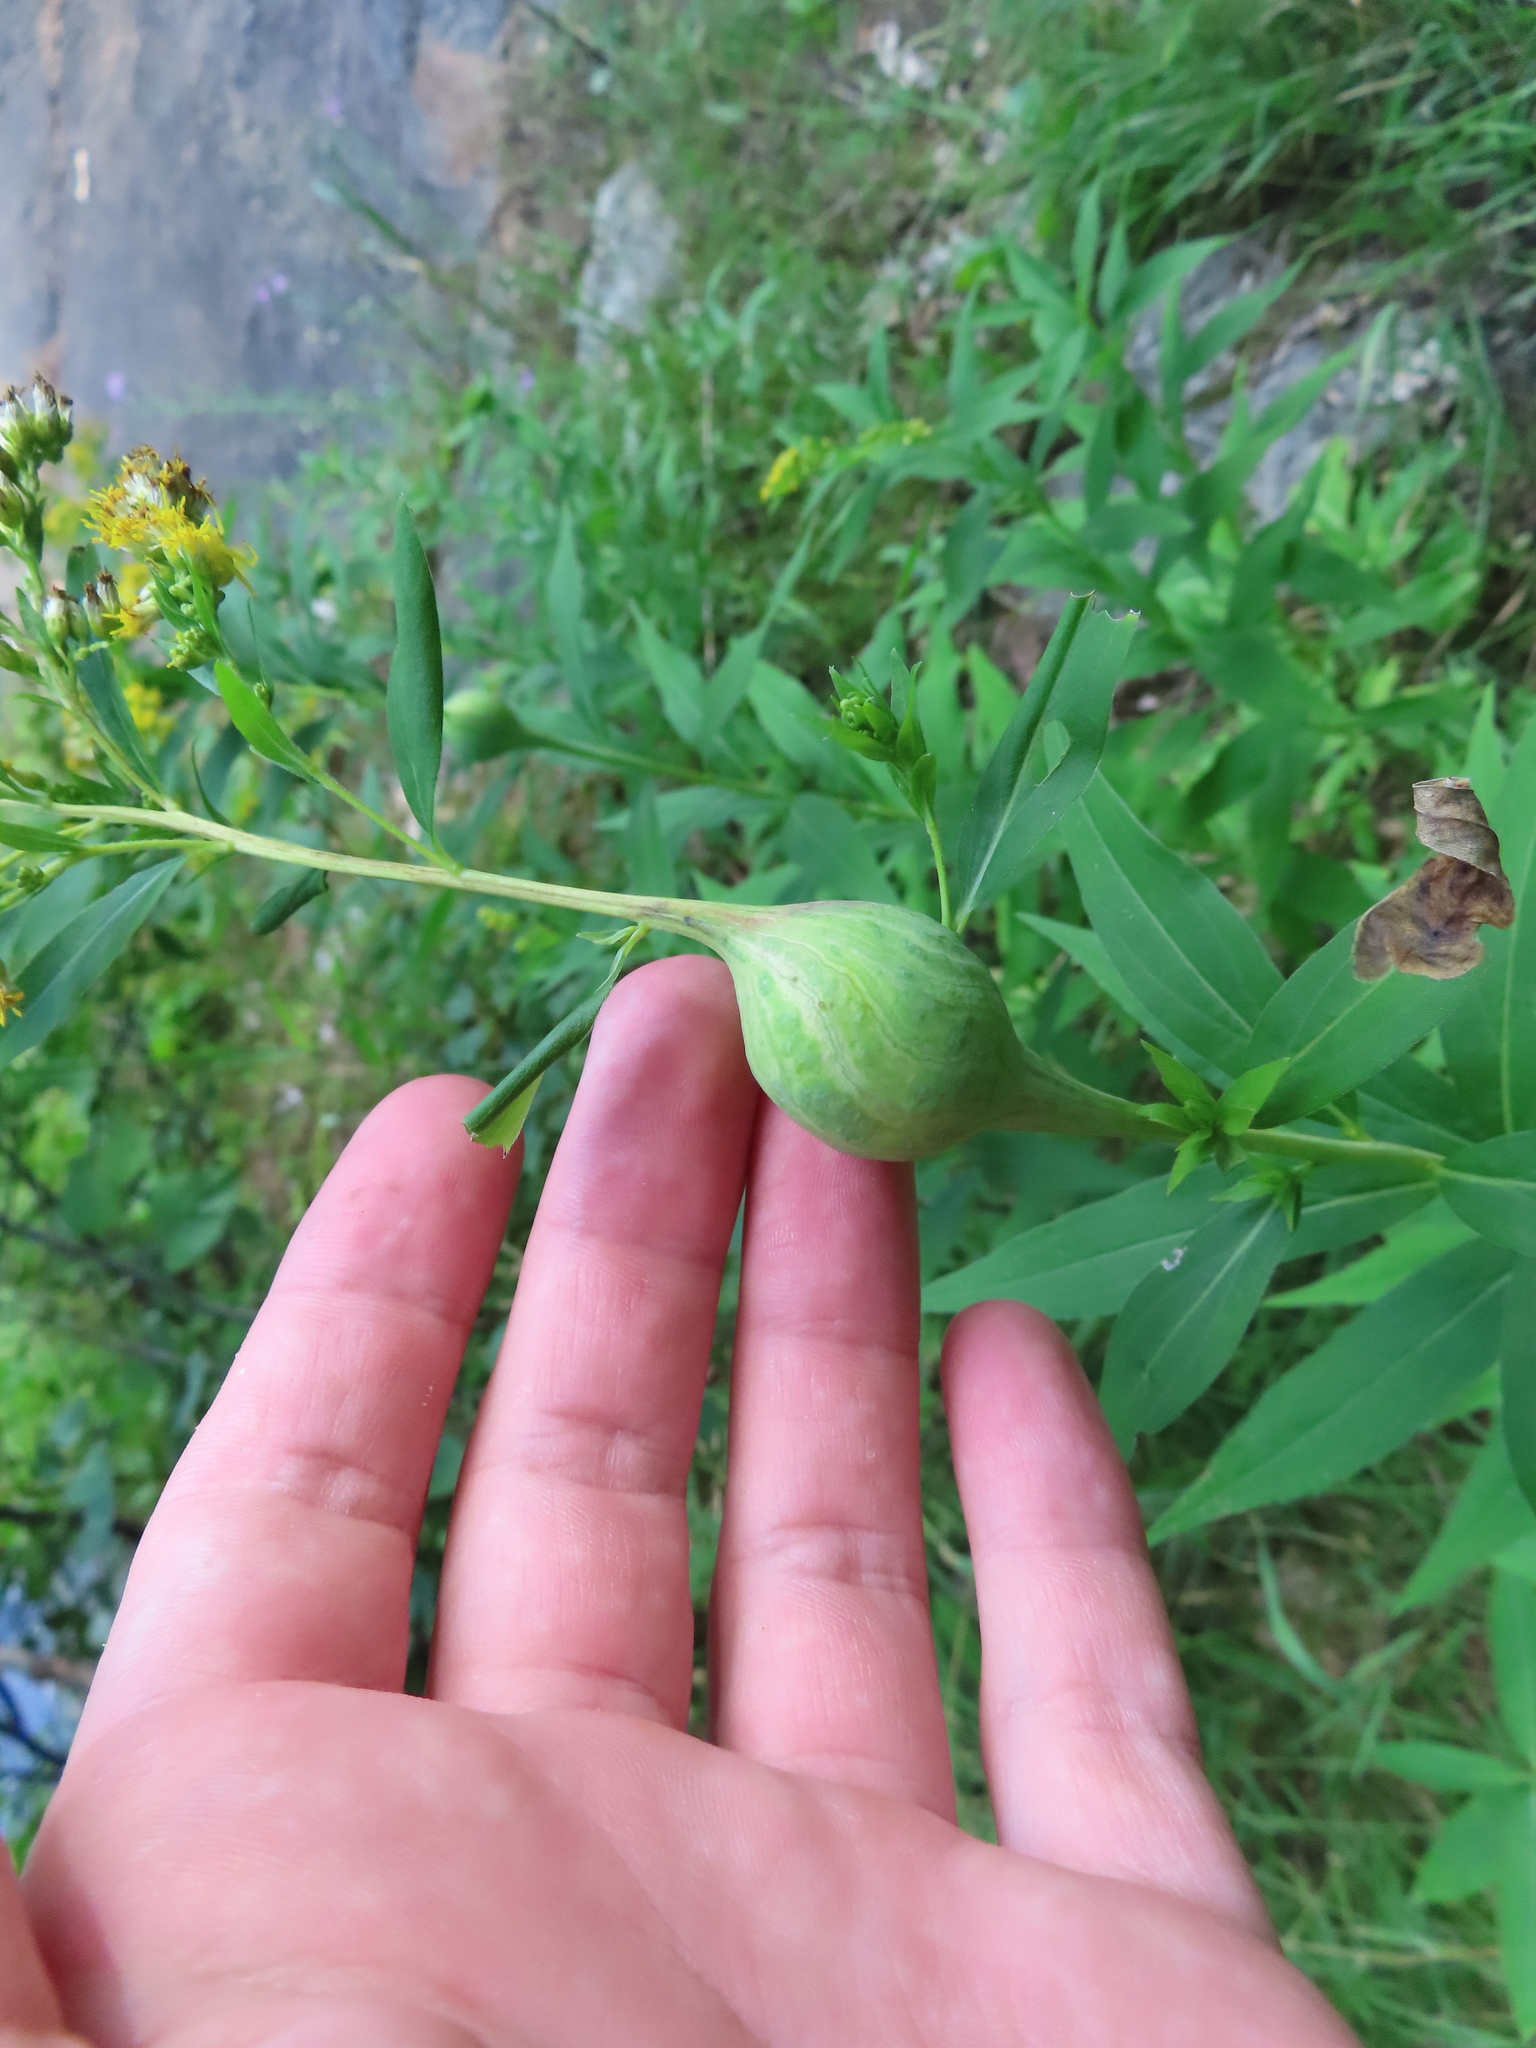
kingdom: Animalia
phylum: Arthropoda
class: Insecta
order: Diptera
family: Tephritidae
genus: Eurosta
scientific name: Eurosta solidaginis
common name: Goldenrod gall fly
